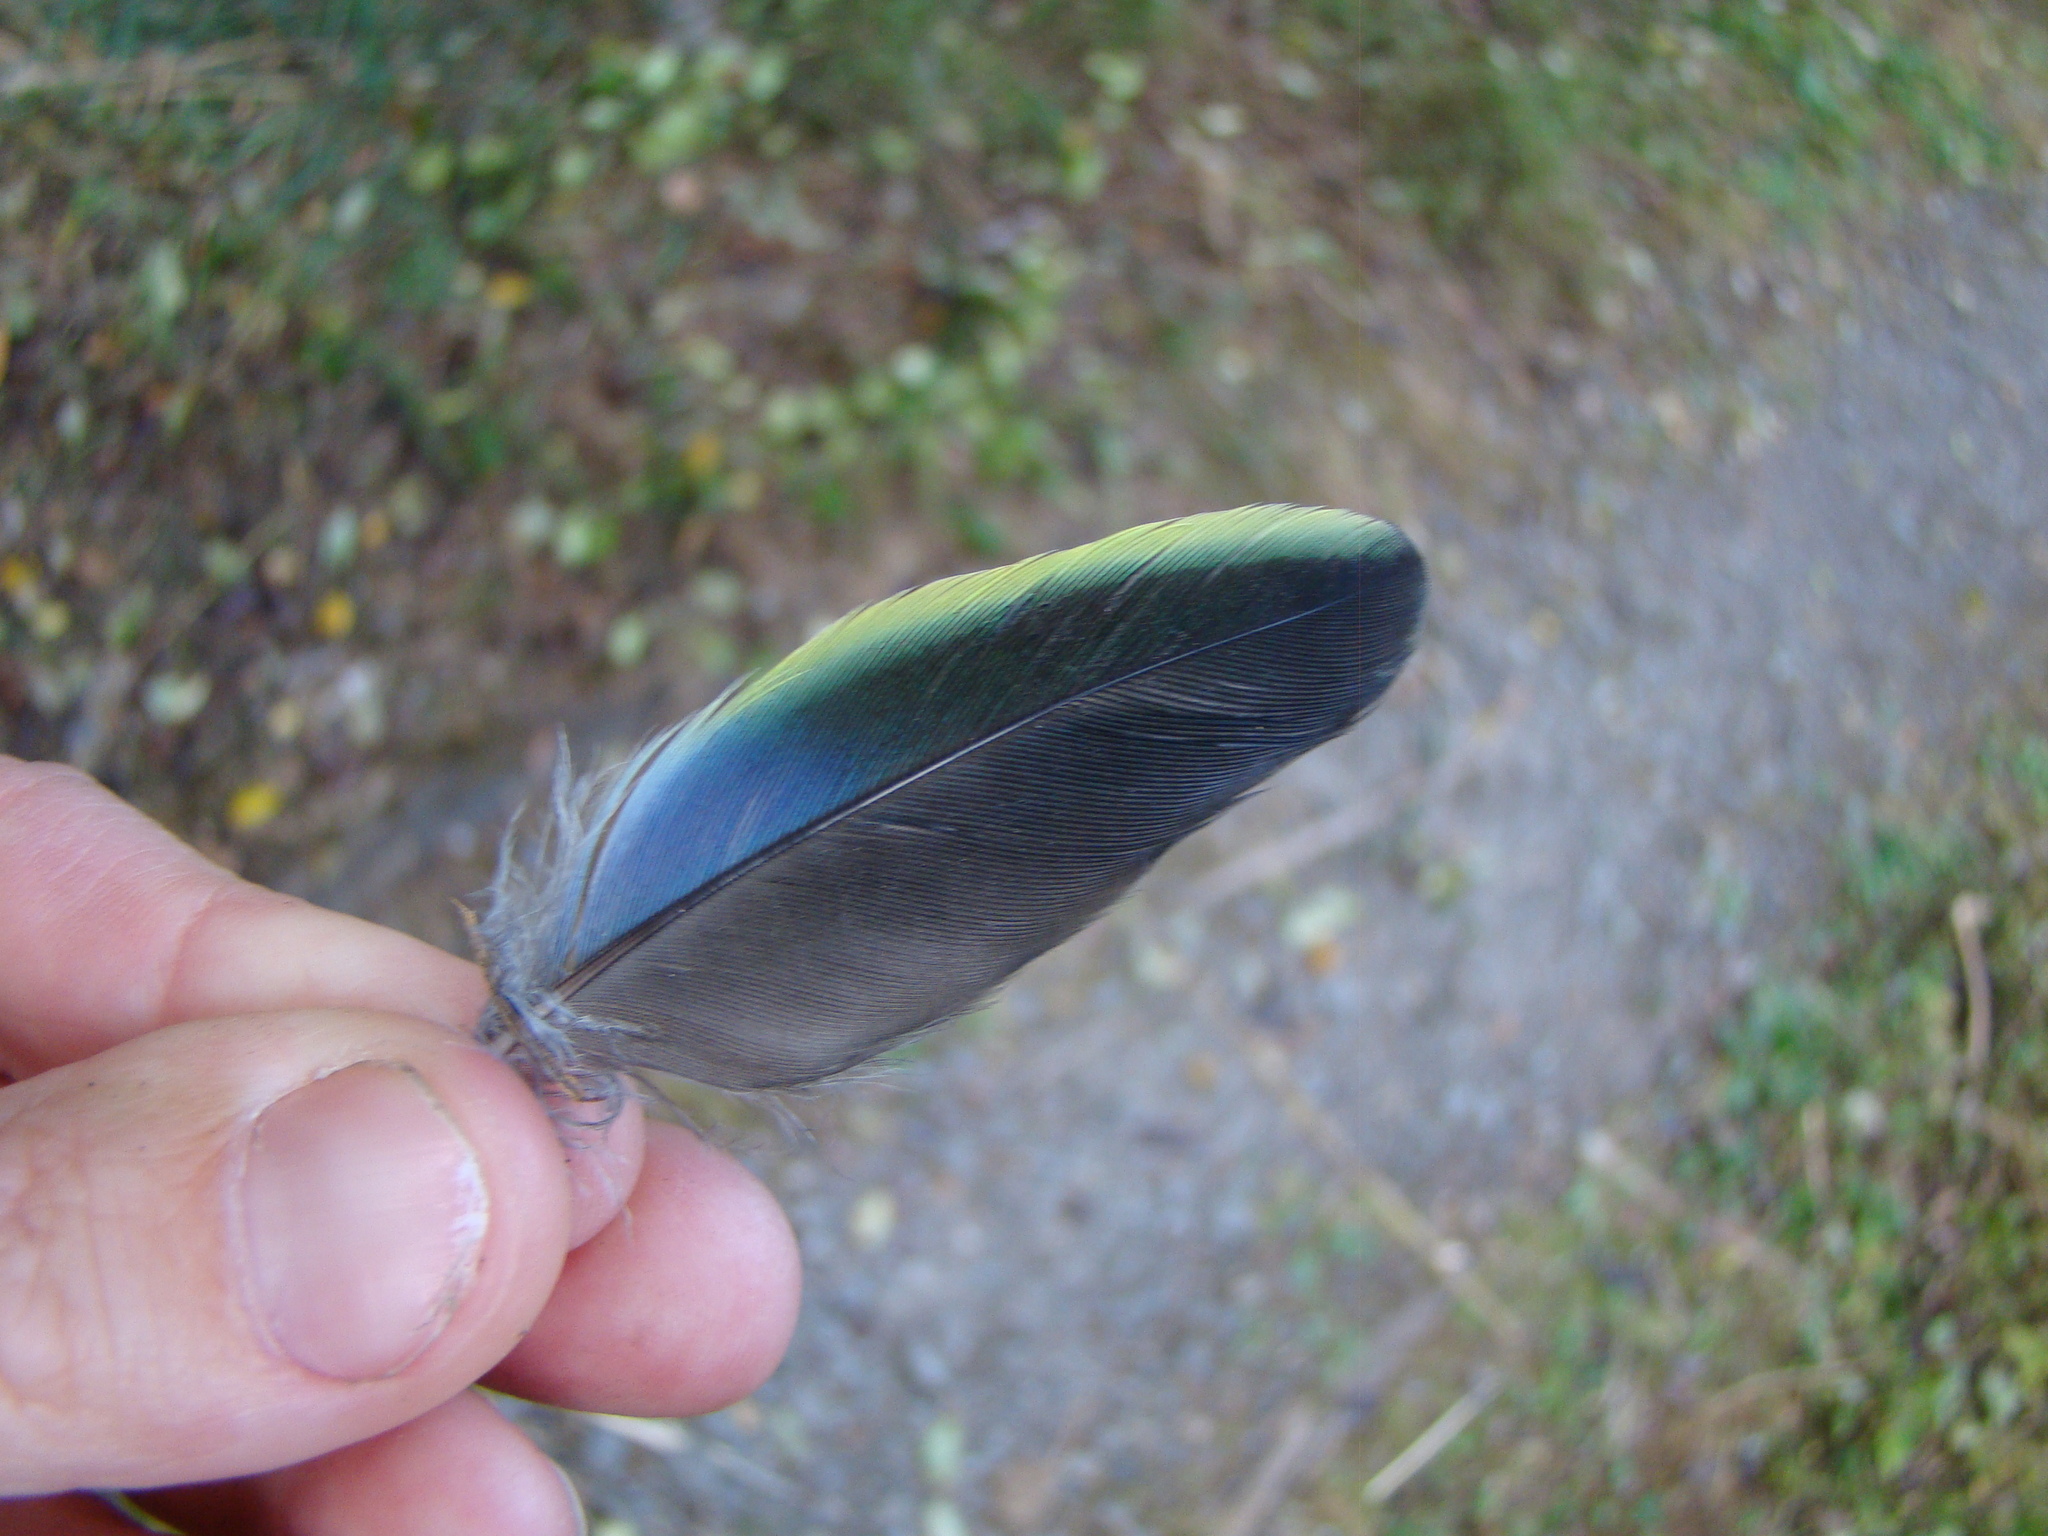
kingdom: Animalia
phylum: Chordata
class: Aves
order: Psittaciformes
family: Psittacidae
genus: Platycercus
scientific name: Platycercus eximius
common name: Eastern rosella
